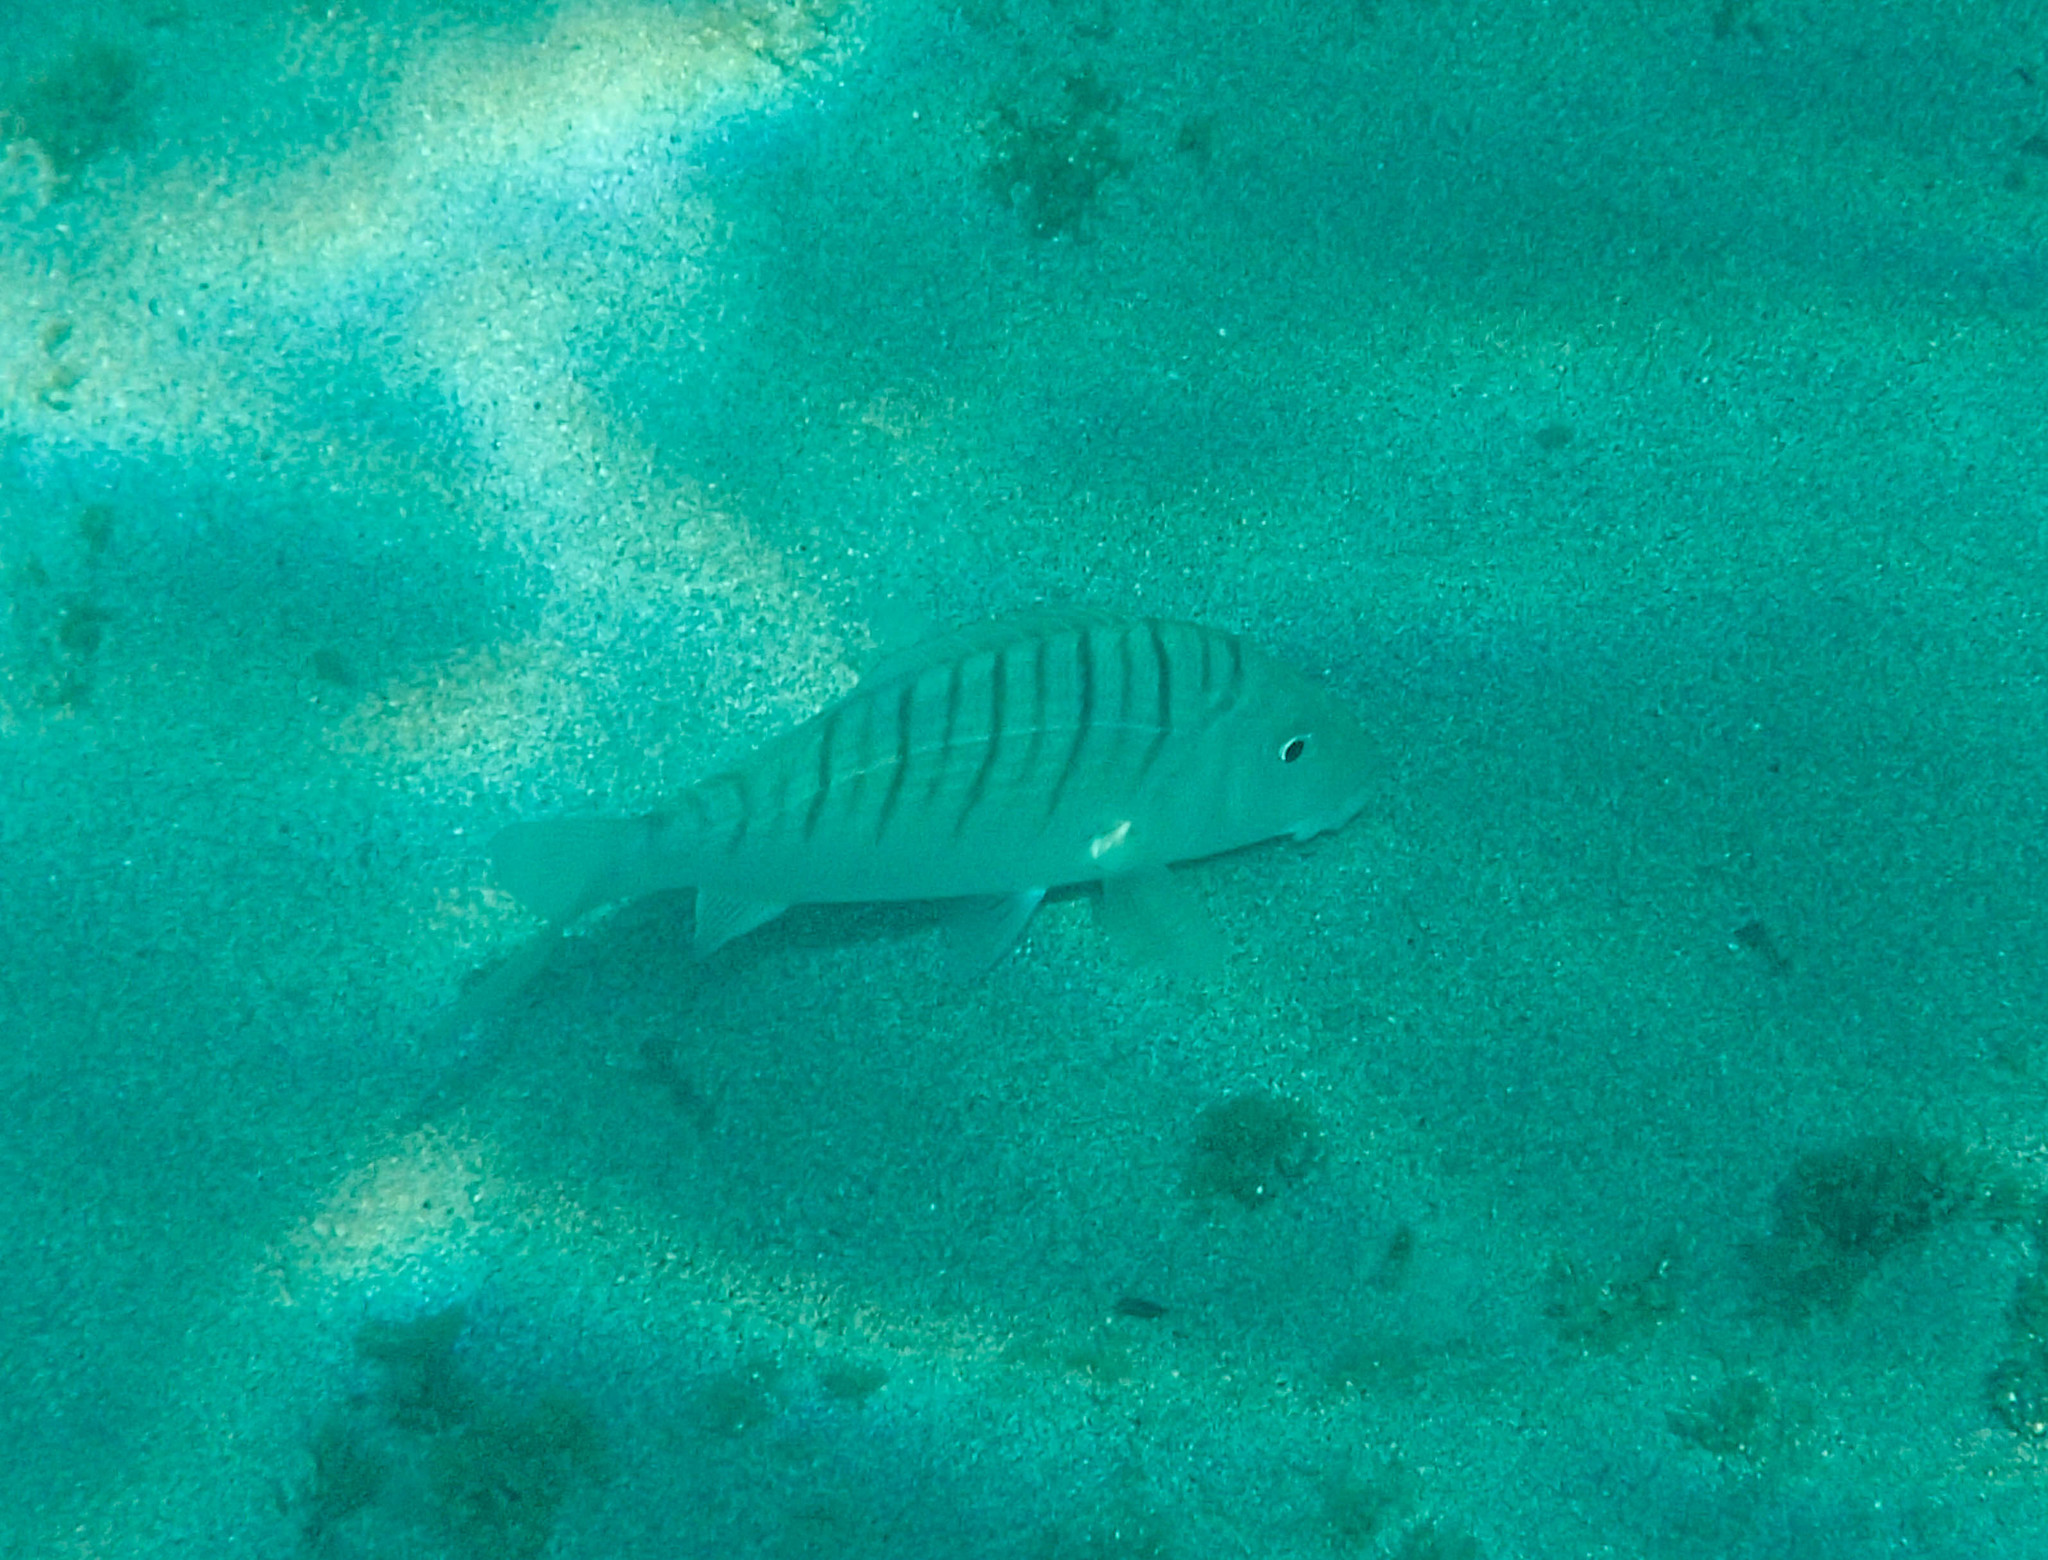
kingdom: Animalia
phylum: Chordata
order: Perciformes
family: Sparidae
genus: Lithognathus
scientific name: Lithognathus mormyrus
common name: Sand steenbras
